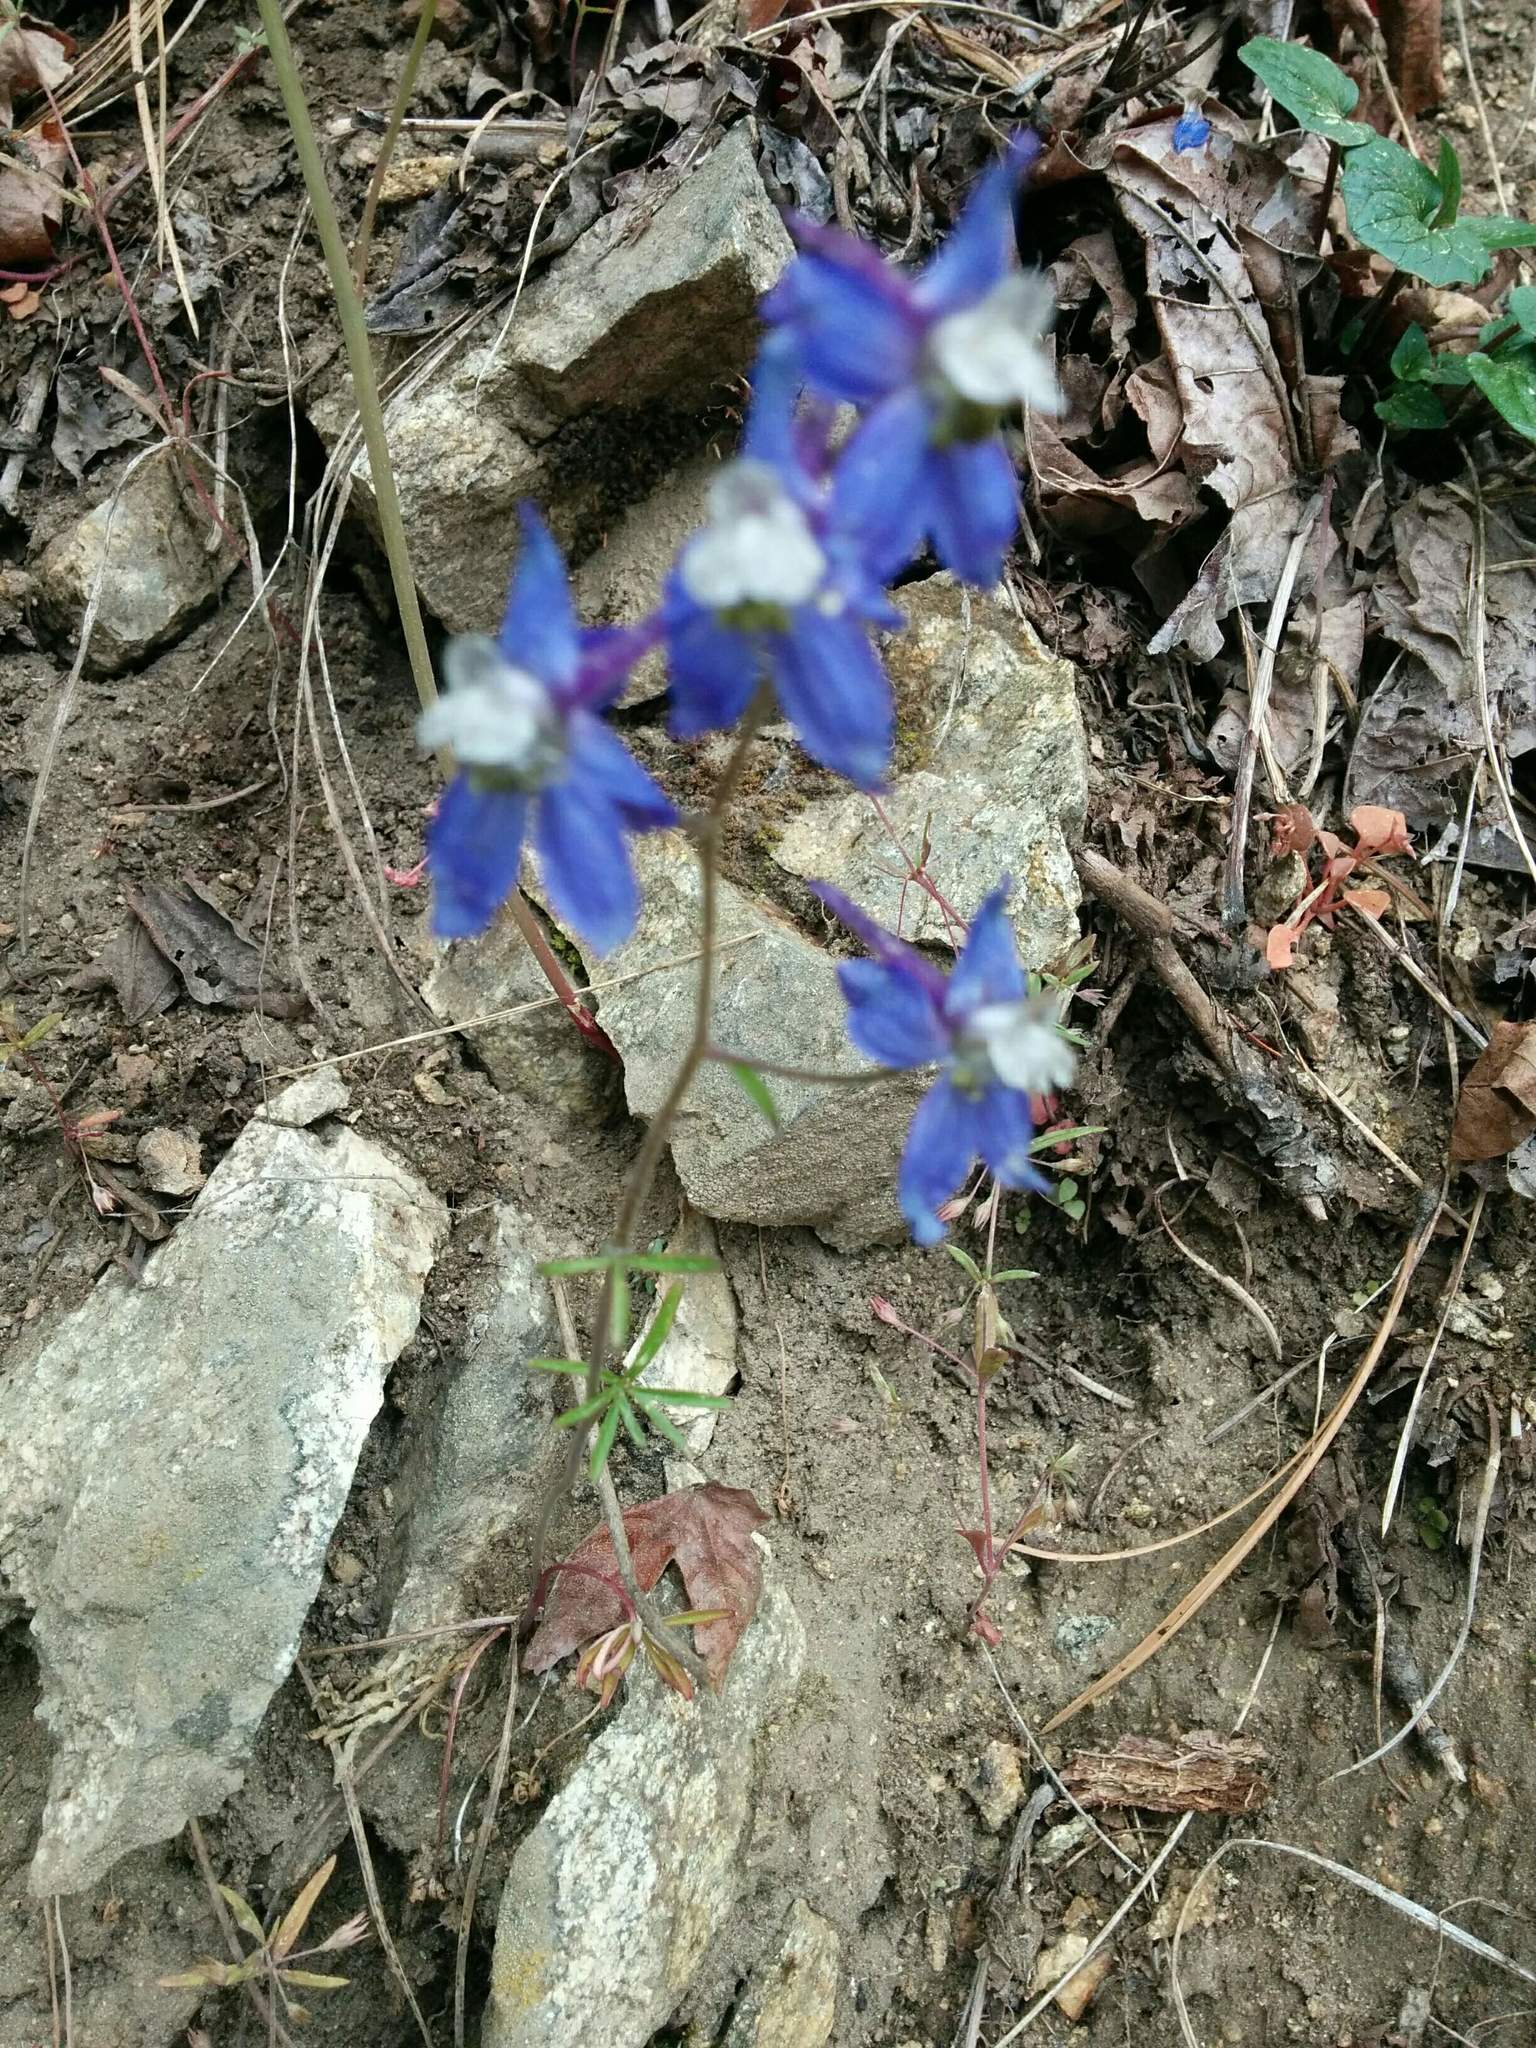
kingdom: Plantae
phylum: Tracheophyta
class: Magnoliopsida
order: Ranunculales
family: Ranunculaceae
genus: Delphinium
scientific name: Delphinium lineapetalum
